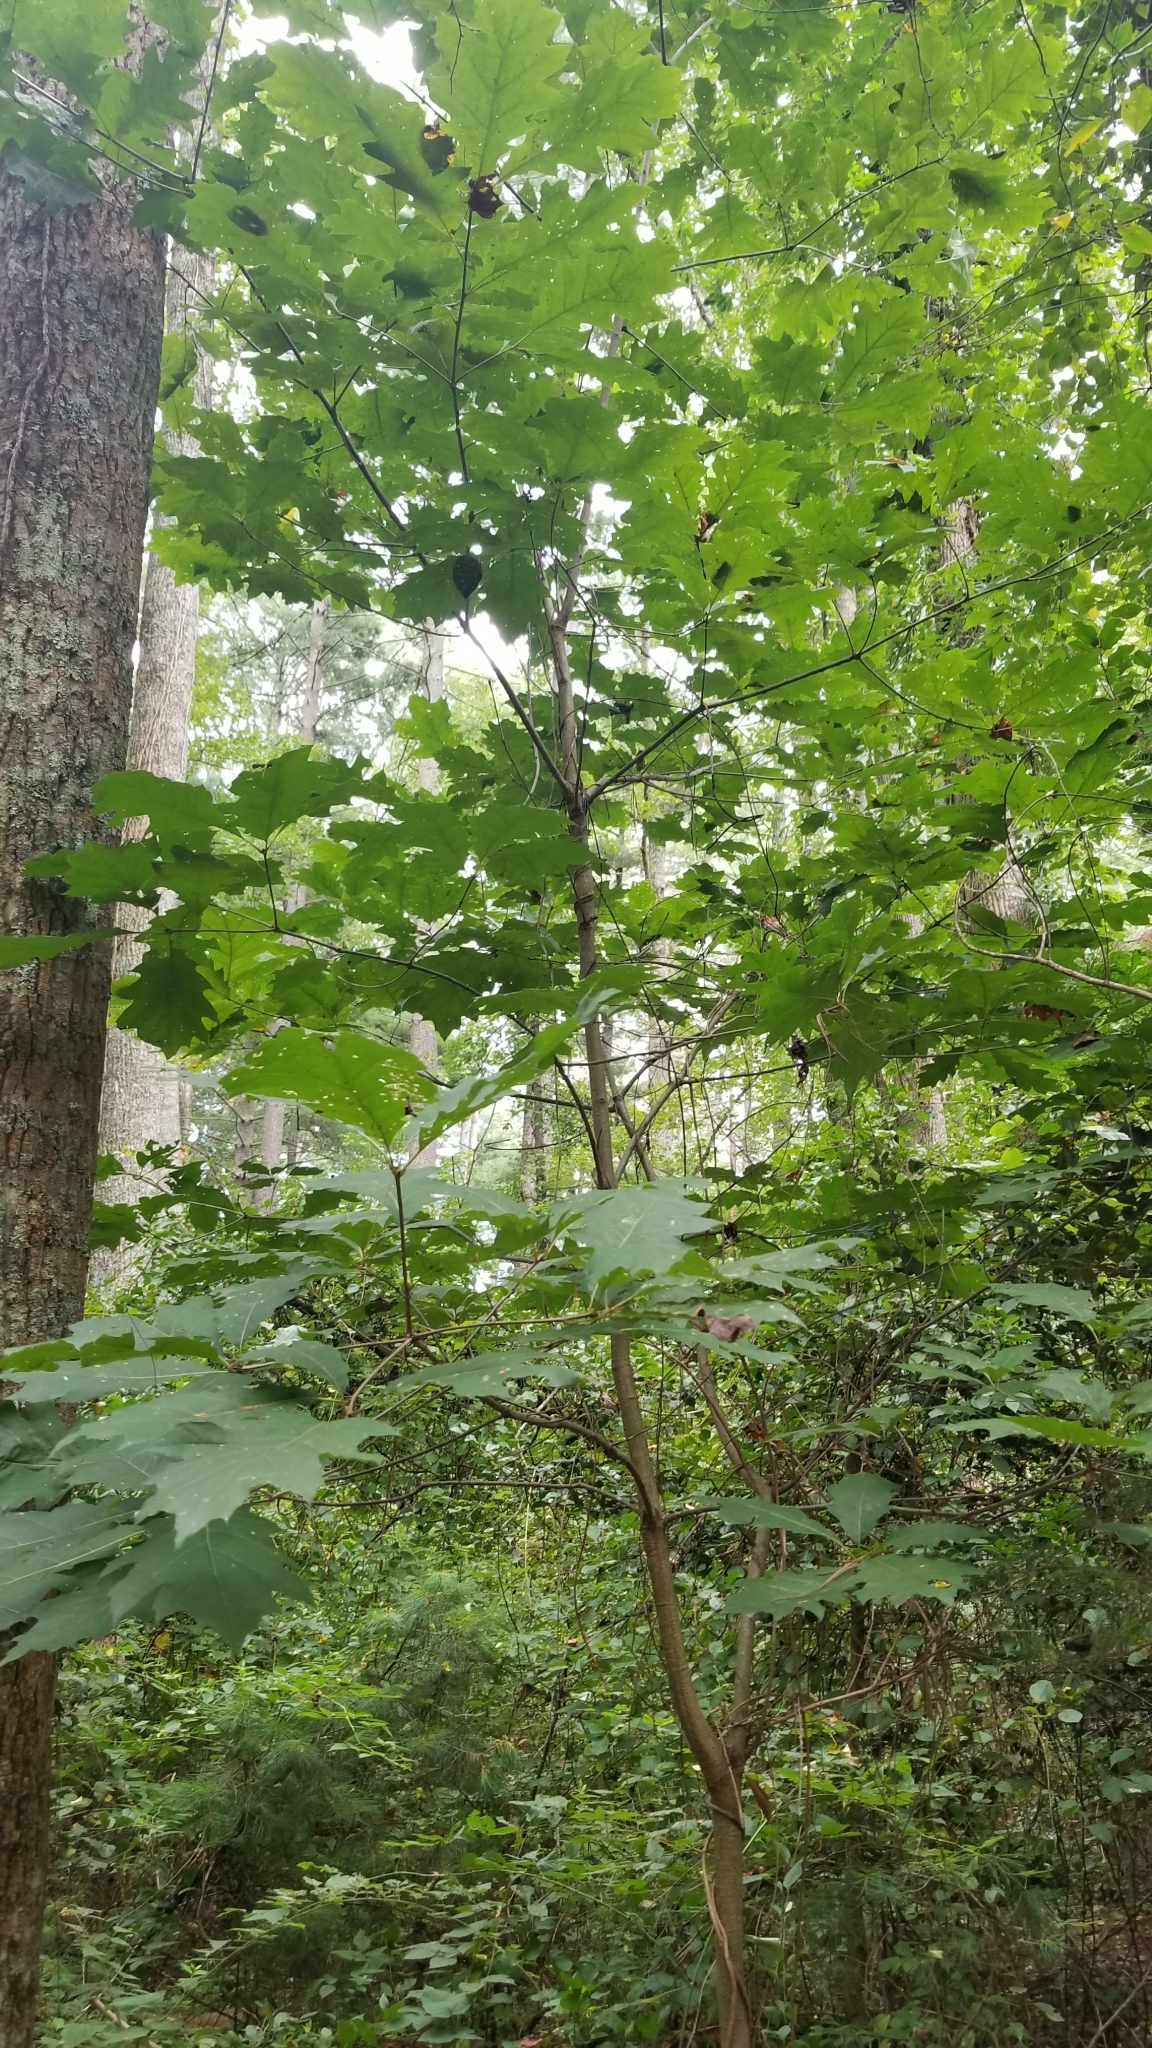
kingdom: Plantae
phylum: Tracheophyta
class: Magnoliopsida
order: Fagales
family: Fagaceae
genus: Quercus
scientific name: Quercus rubra
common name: Red oak
